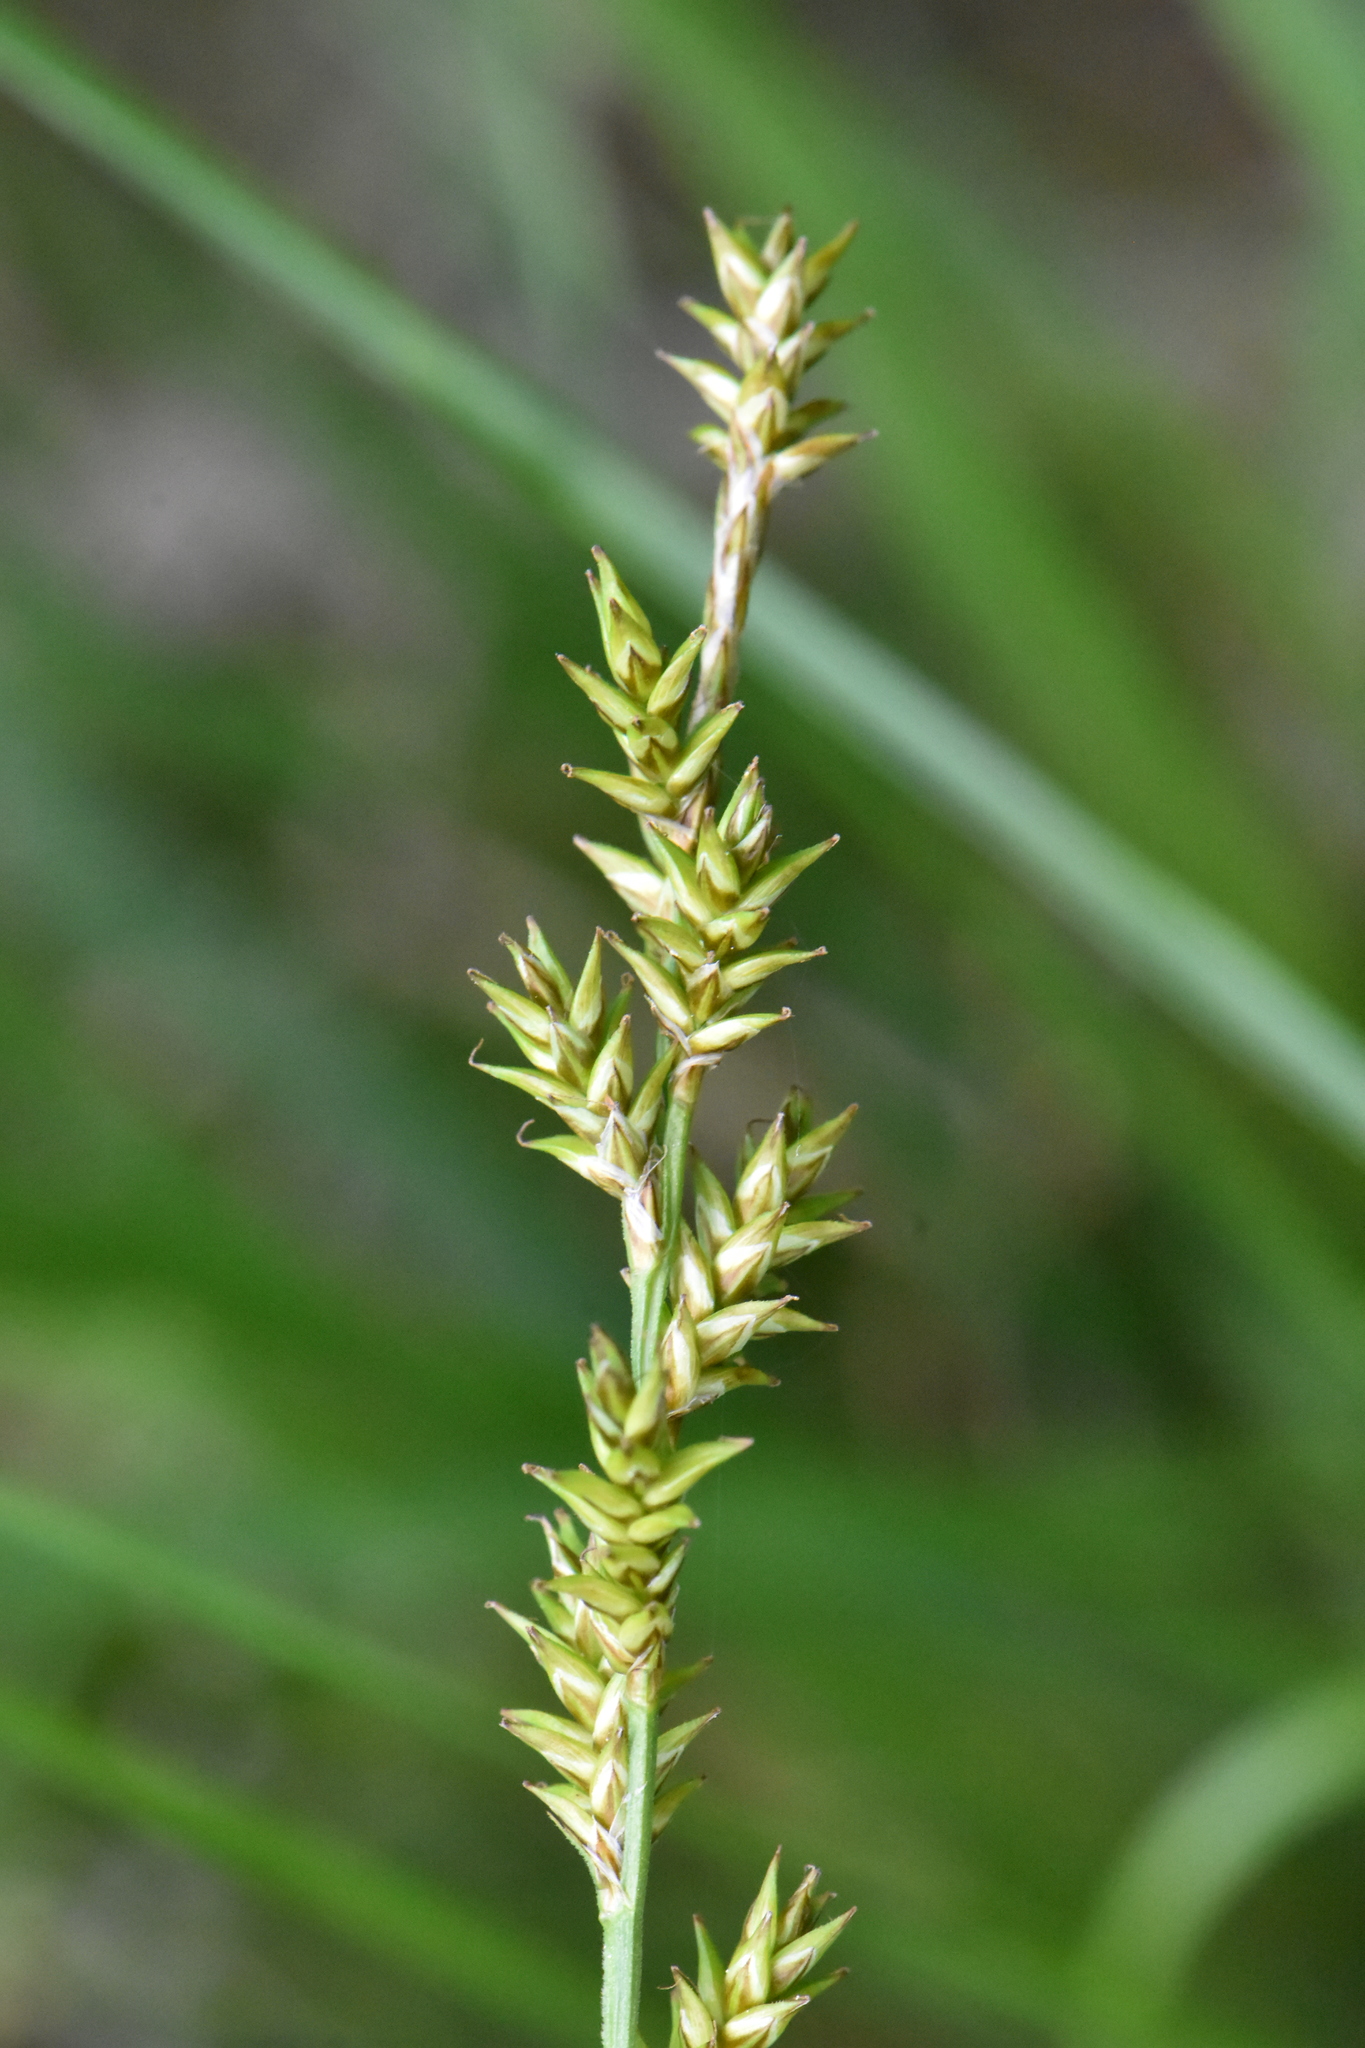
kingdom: Plantae
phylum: Tracheophyta
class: Liliopsida
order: Poales
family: Cyperaceae
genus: Carex
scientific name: Carex elongata
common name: Elongated sedge
